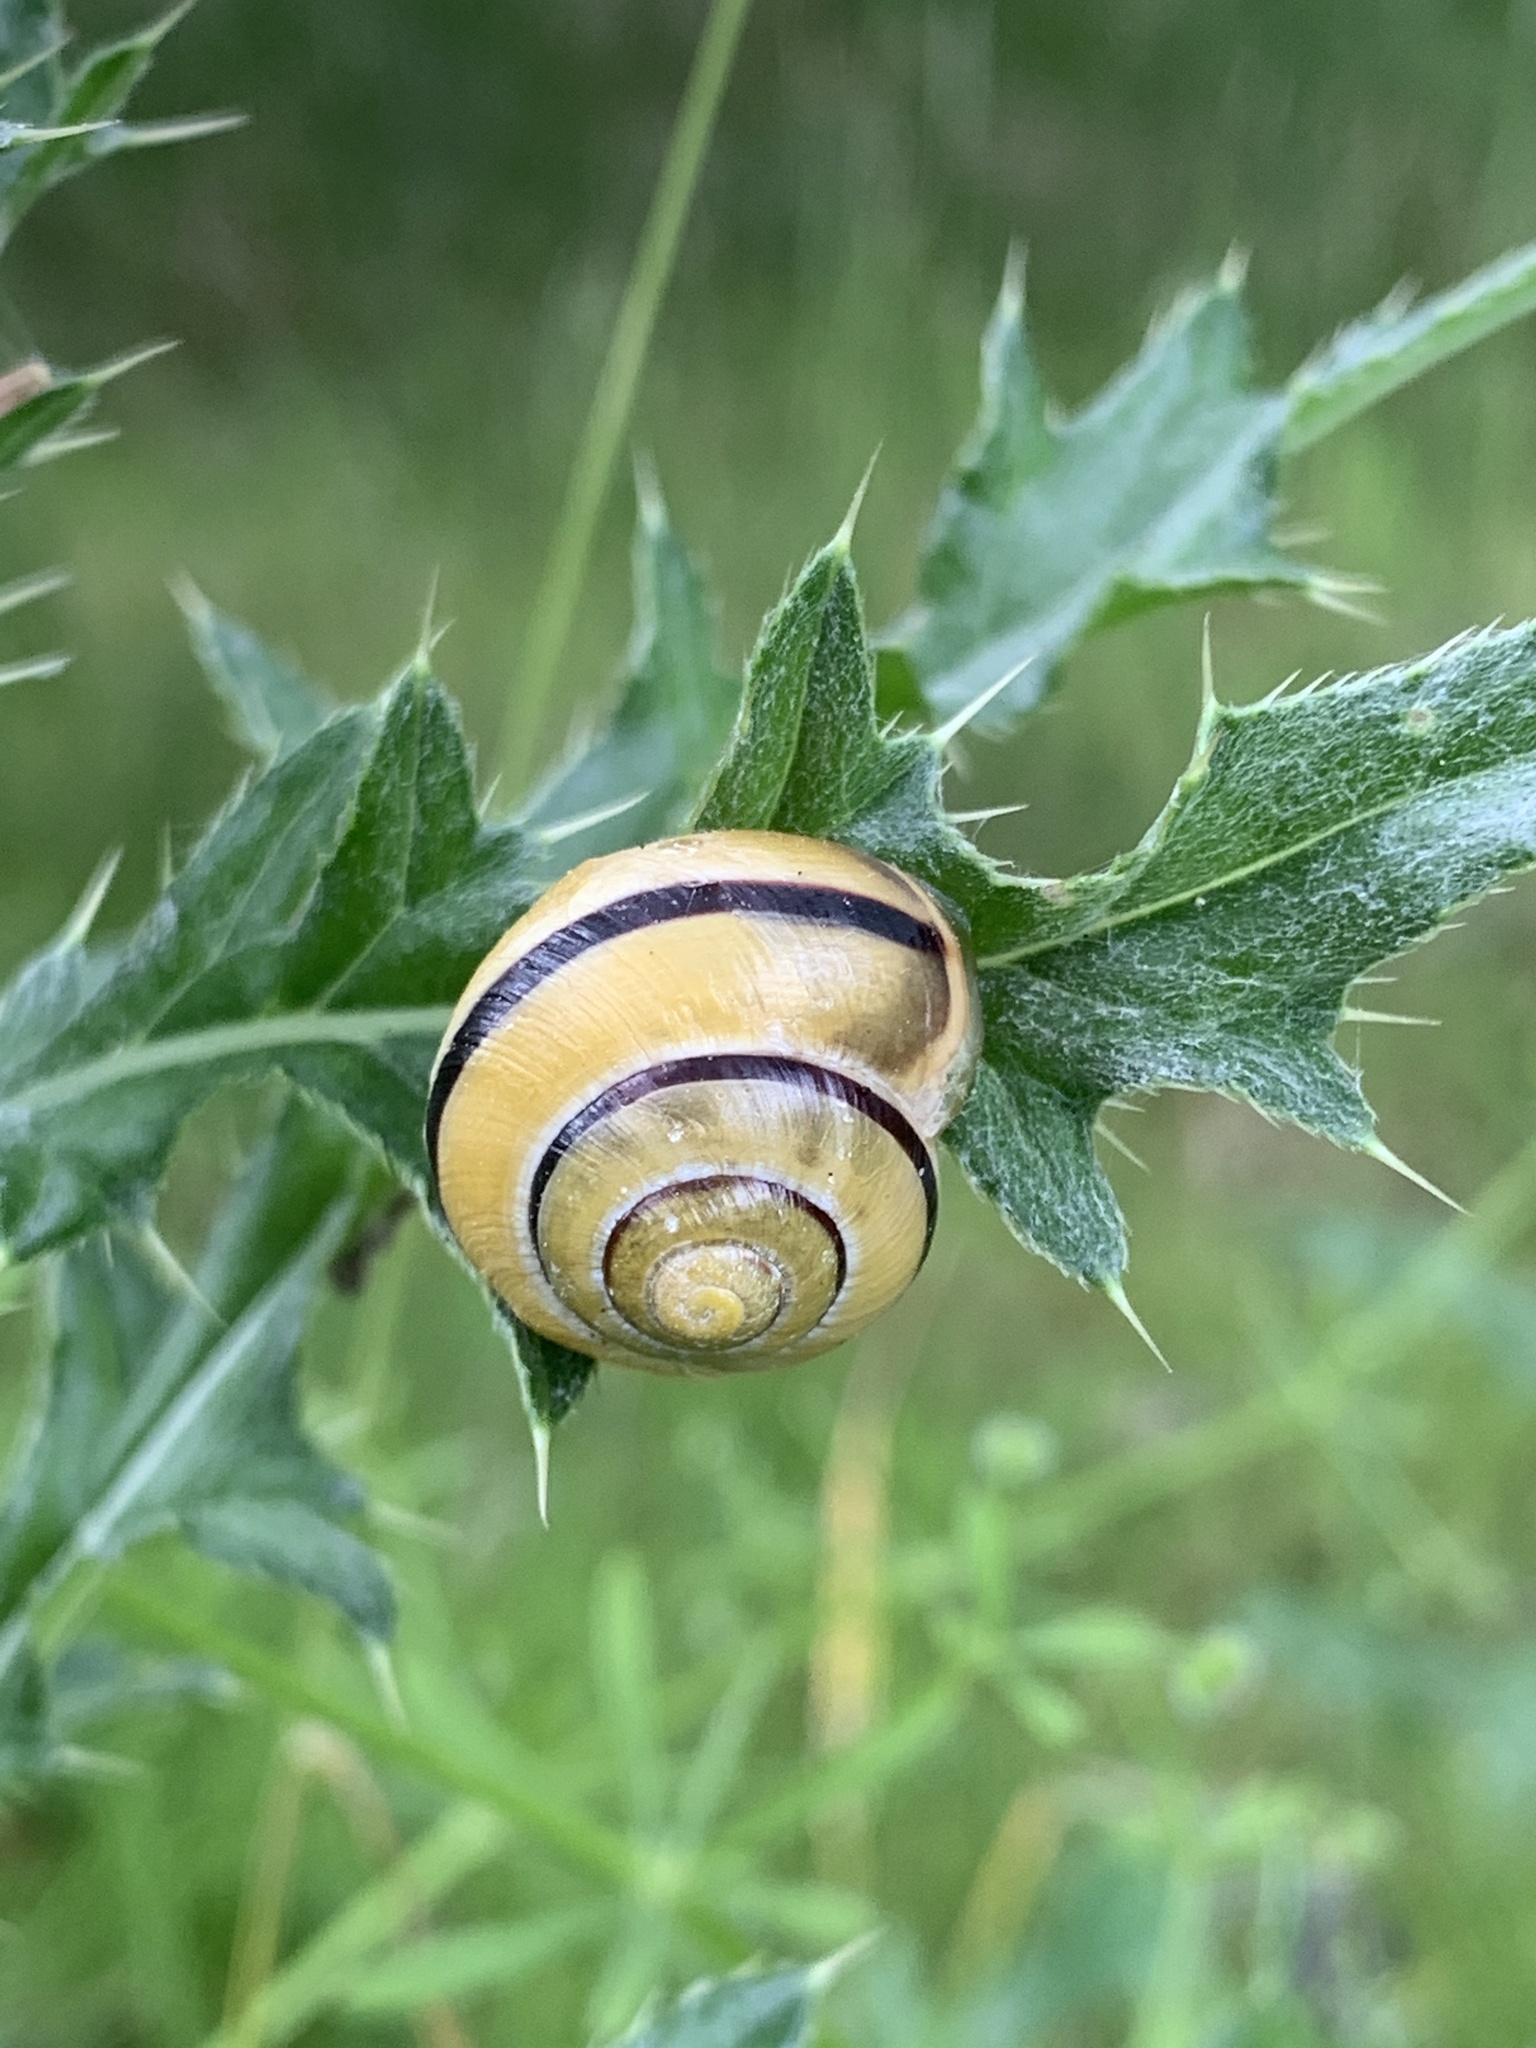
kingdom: Animalia
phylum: Mollusca
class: Gastropoda
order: Stylommatophora
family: Helicidae
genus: Cepaea
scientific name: Cepaea
